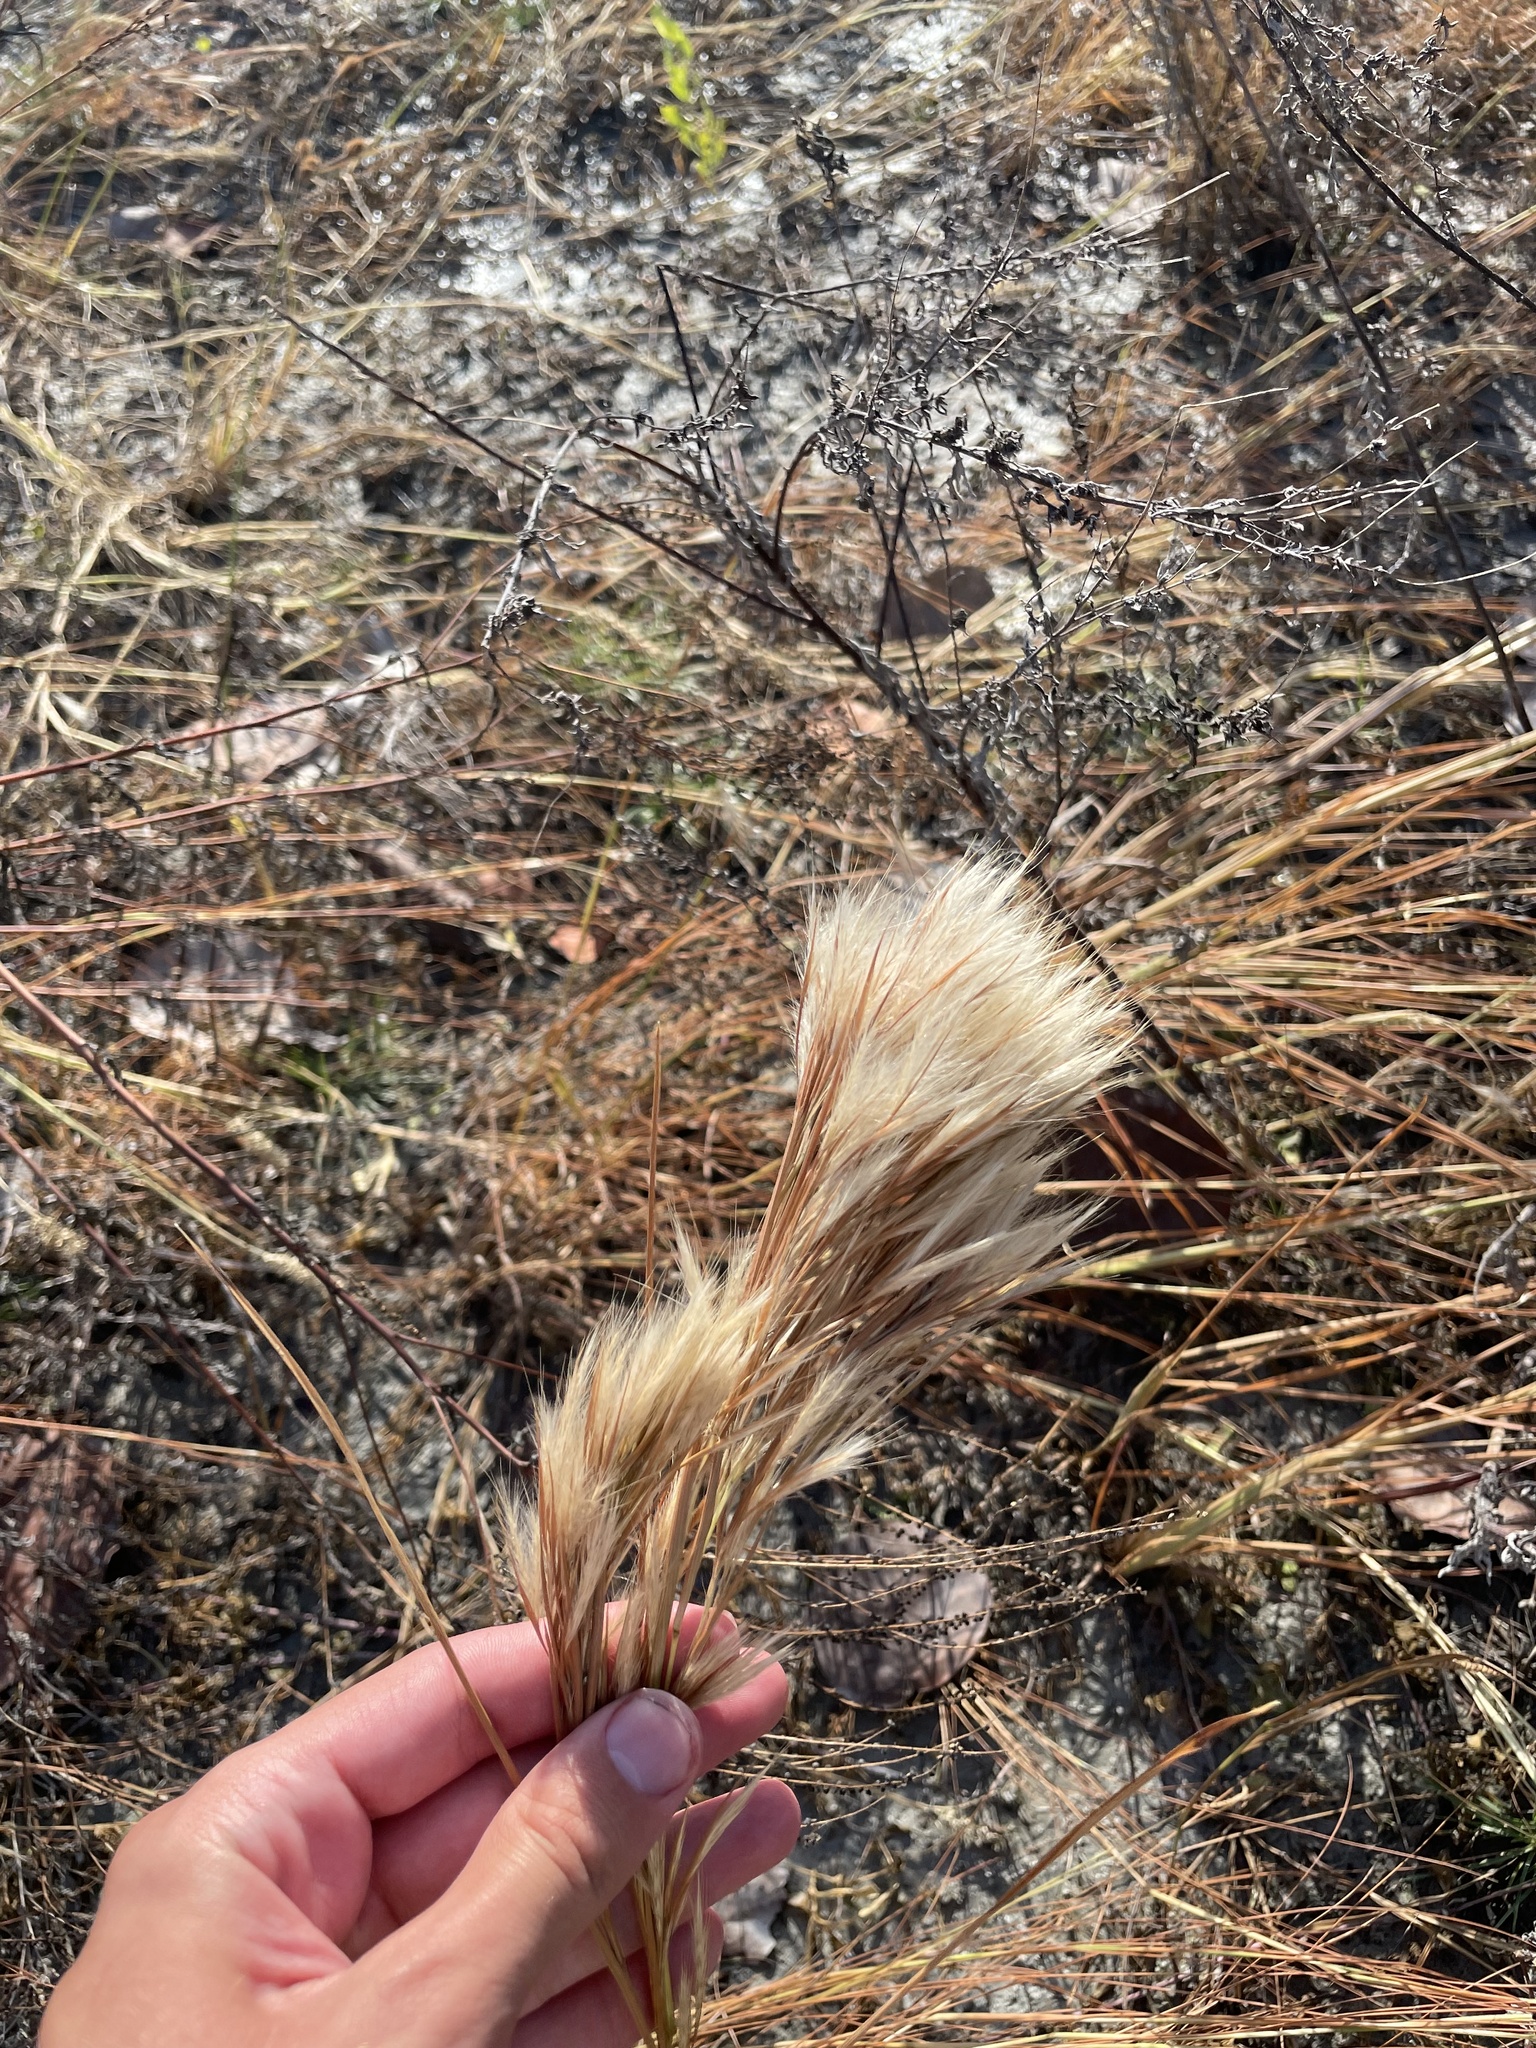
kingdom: Plantae
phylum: Tracheophyta
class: Liliopsida
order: Poales
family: Poaceae
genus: Andropogon
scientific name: Andropogon tenuispatheus
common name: Bushy bluestem
